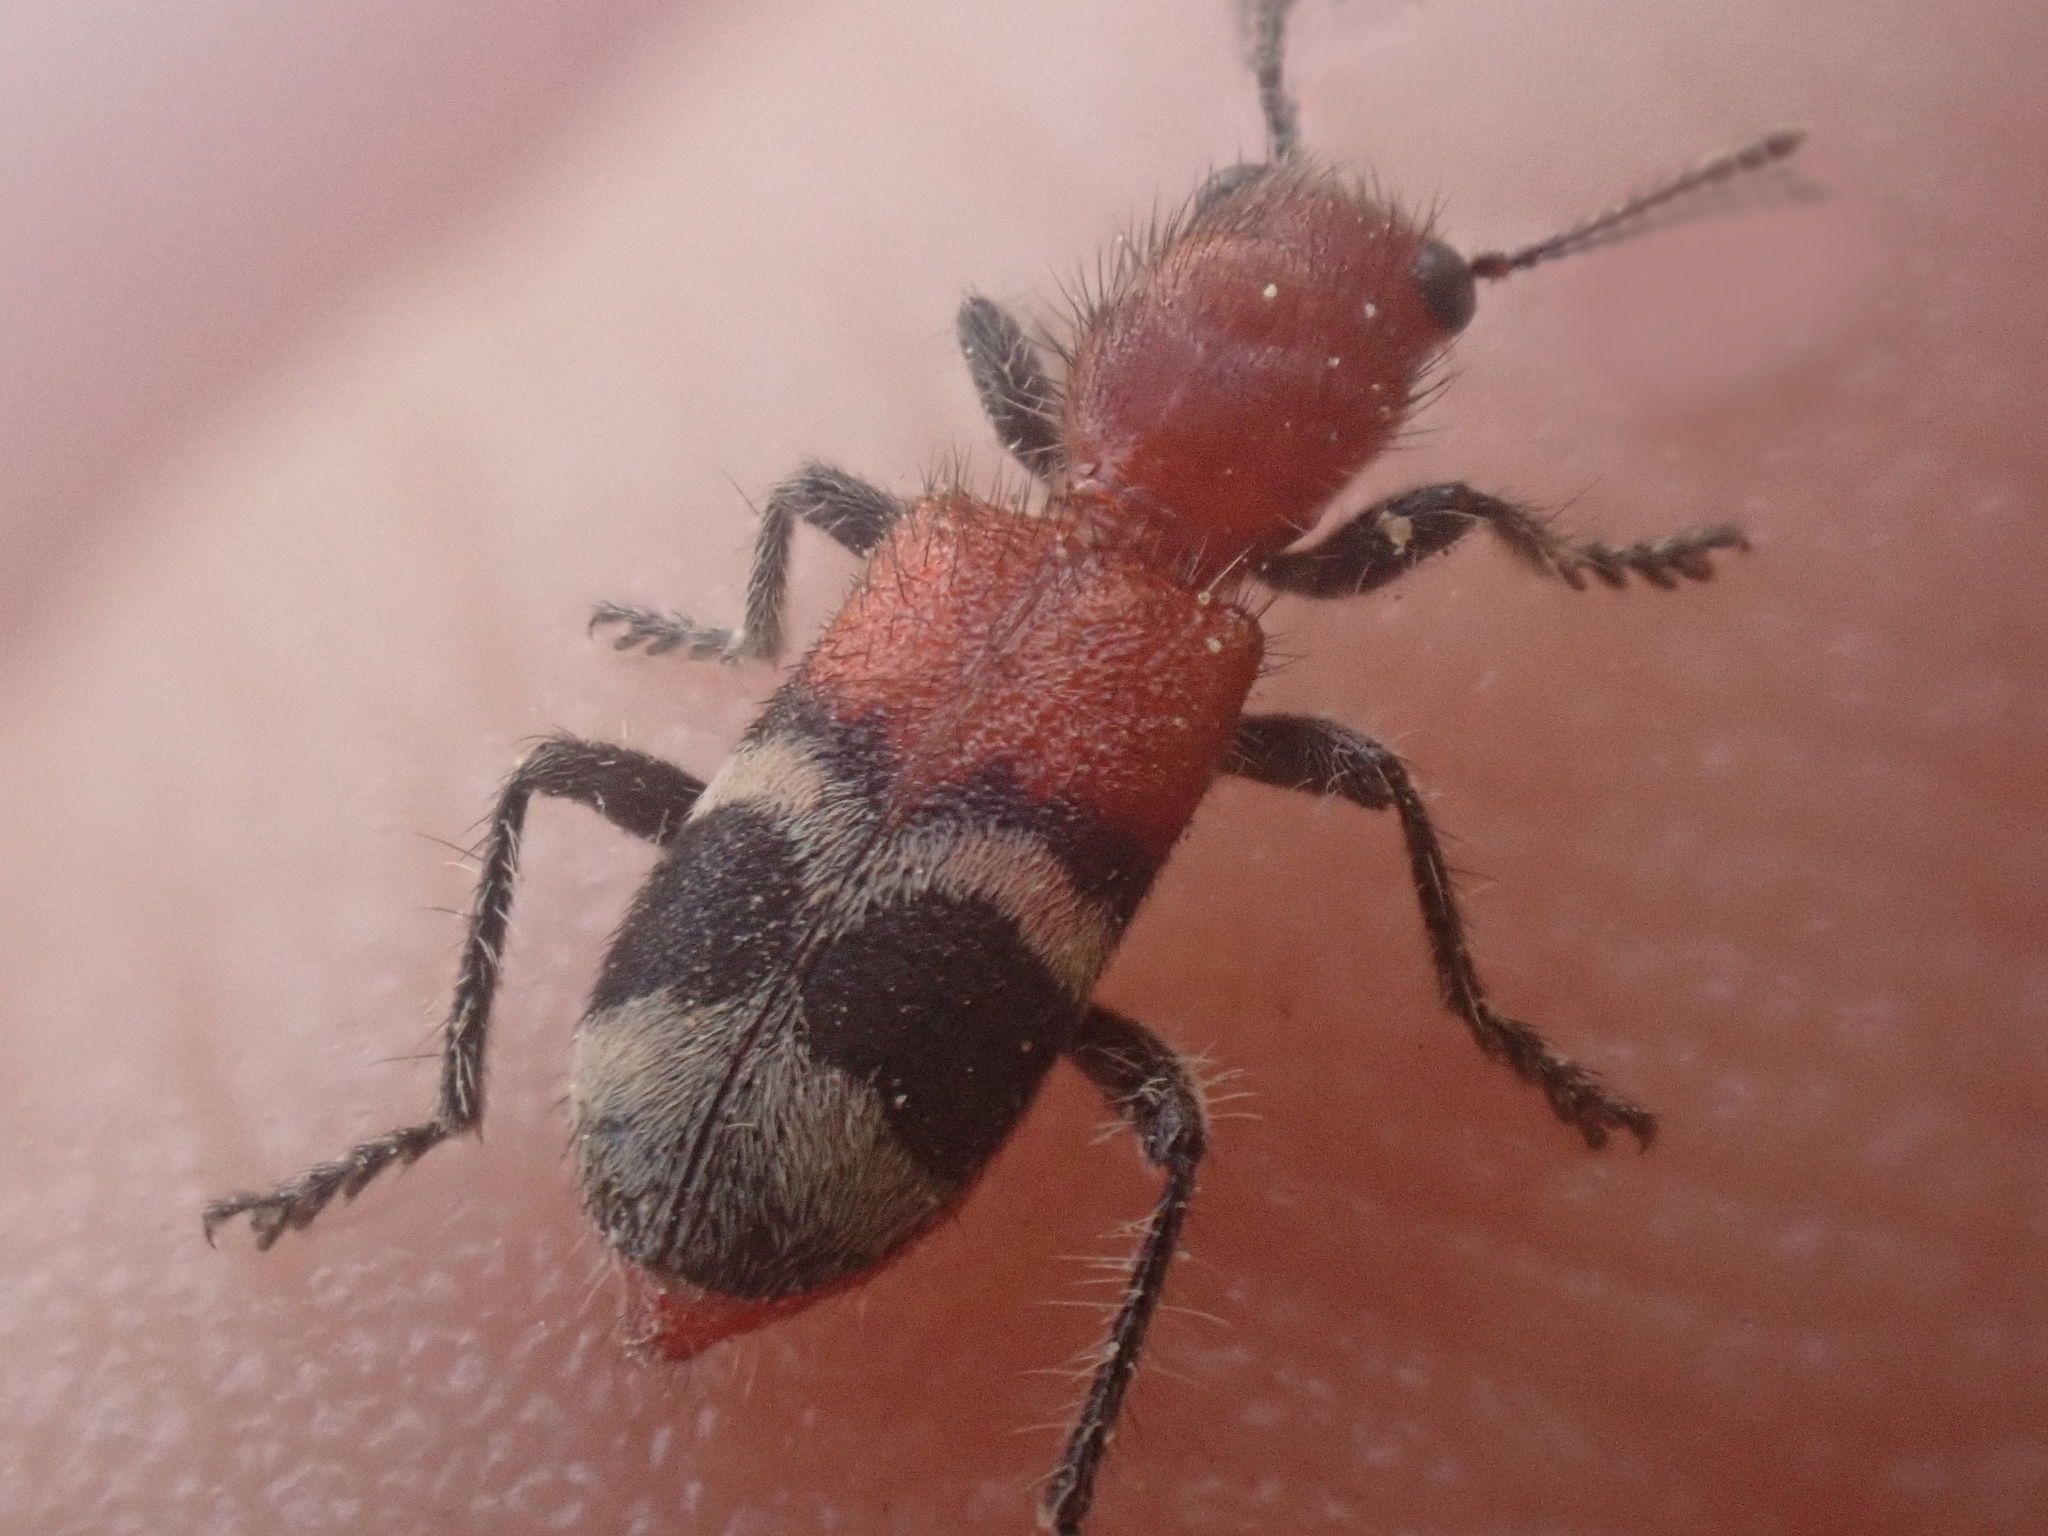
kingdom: Animalia
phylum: Arthropoda
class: Insecta
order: Coleoptera
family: Cleridae
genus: Enoclerus
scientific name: Enoclerus nigripes
